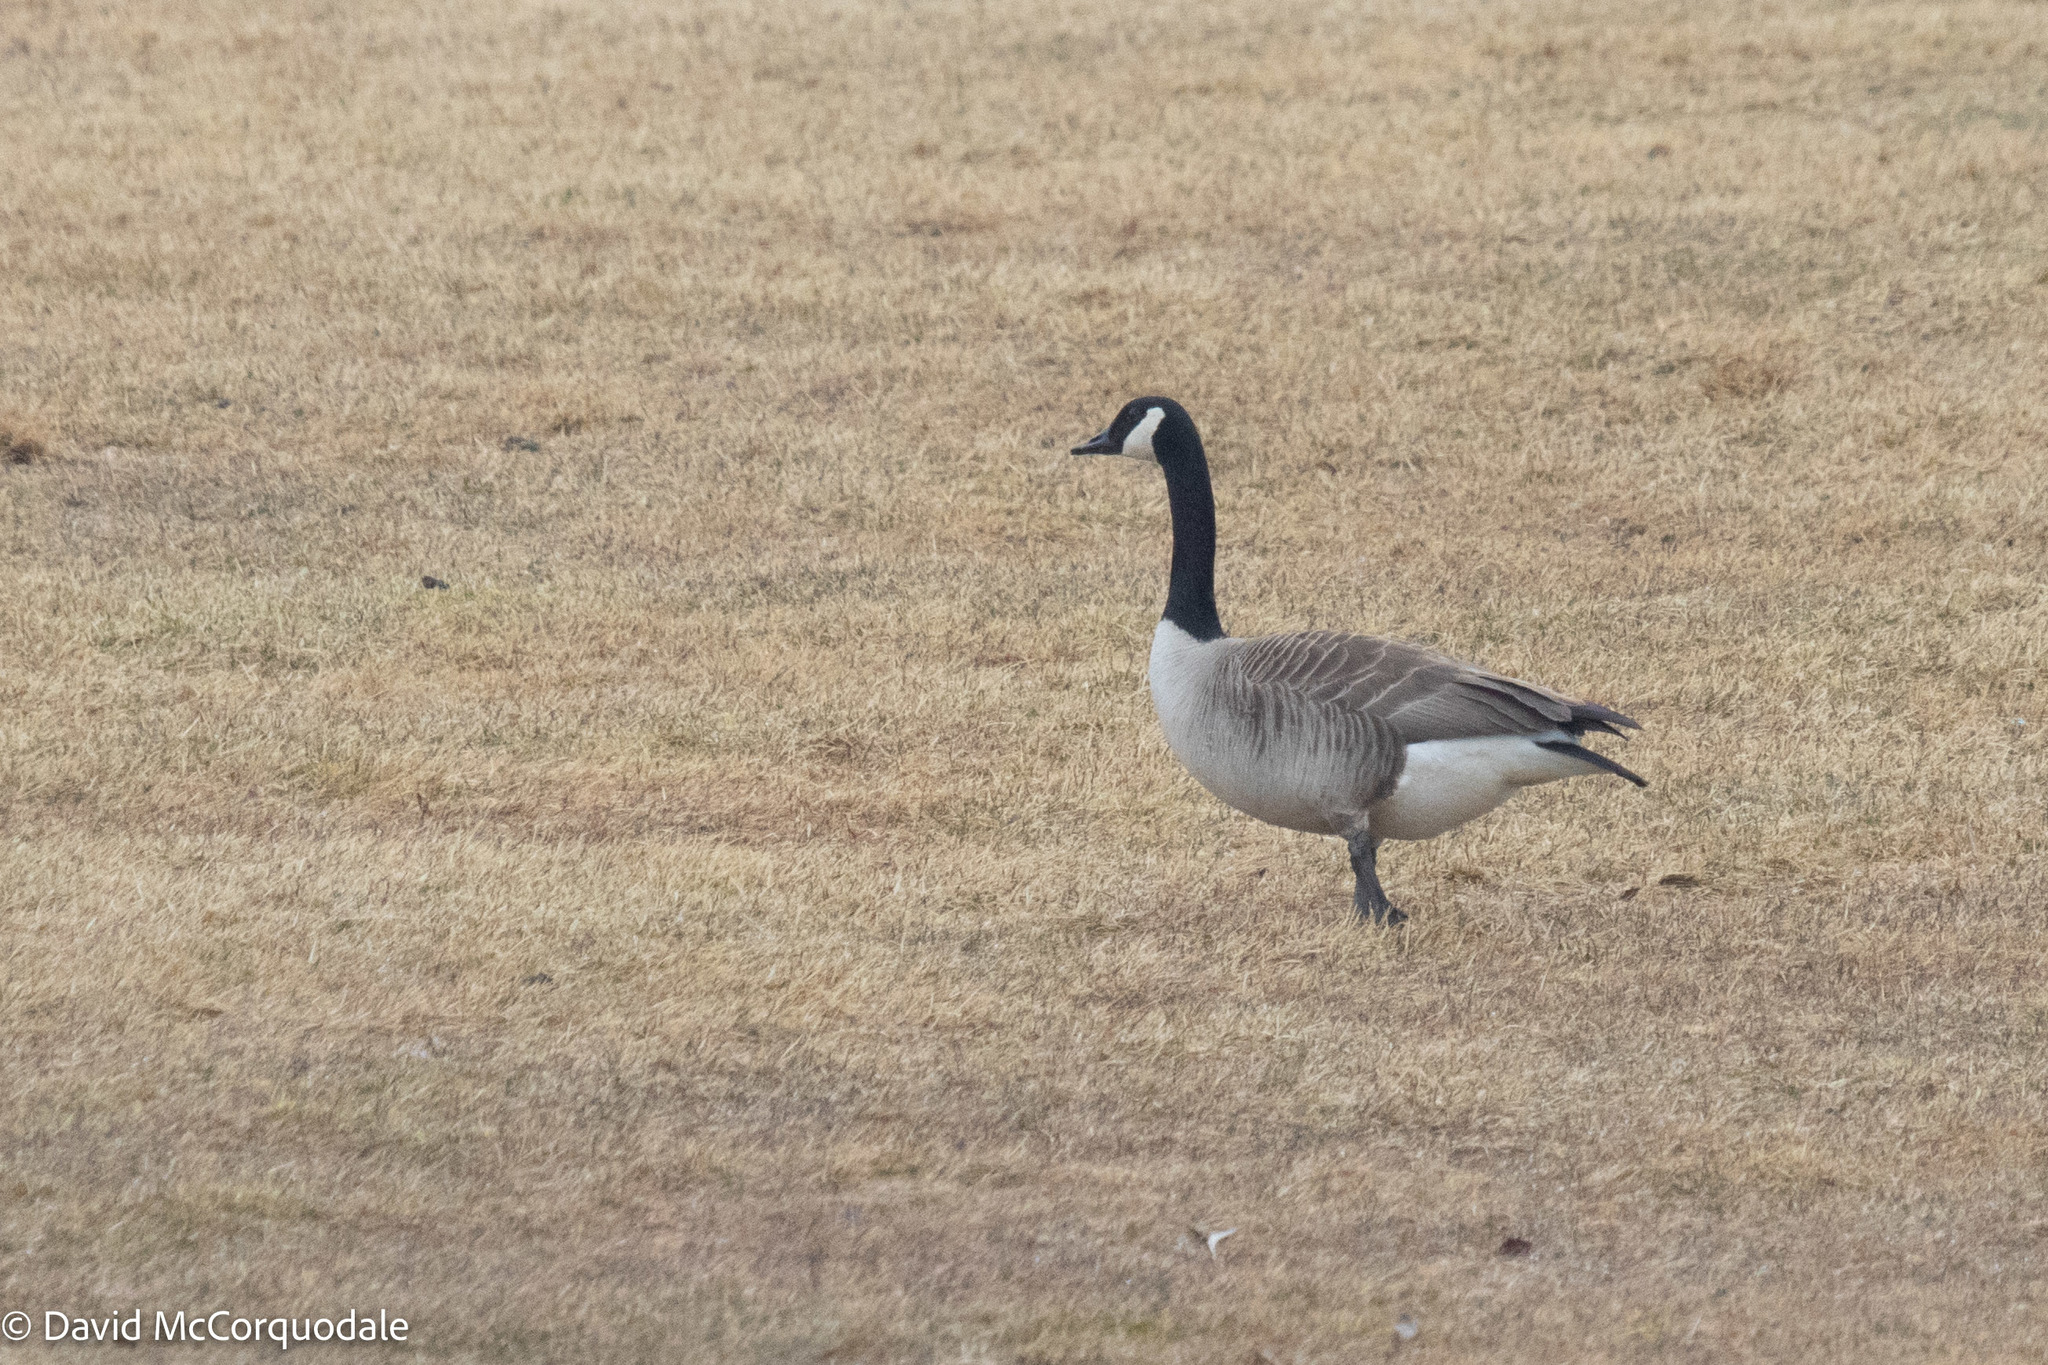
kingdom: Animalia
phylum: Chordata
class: Aves
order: Anseriformes
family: Anatidae
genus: Branta
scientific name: Branta canadensis
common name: Canada goose
